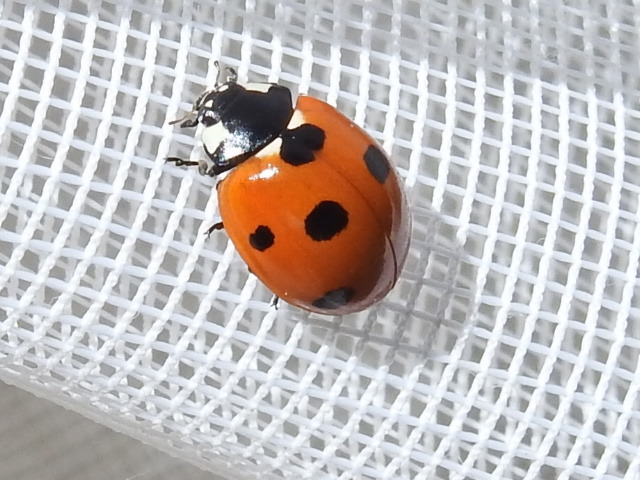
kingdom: Animalia
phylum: Arthropoda
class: Insecta
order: Coleoptera
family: Coccinellidae
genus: Coccinella
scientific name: Coccinella septempunctata
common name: Sevenspotted lady beetle
